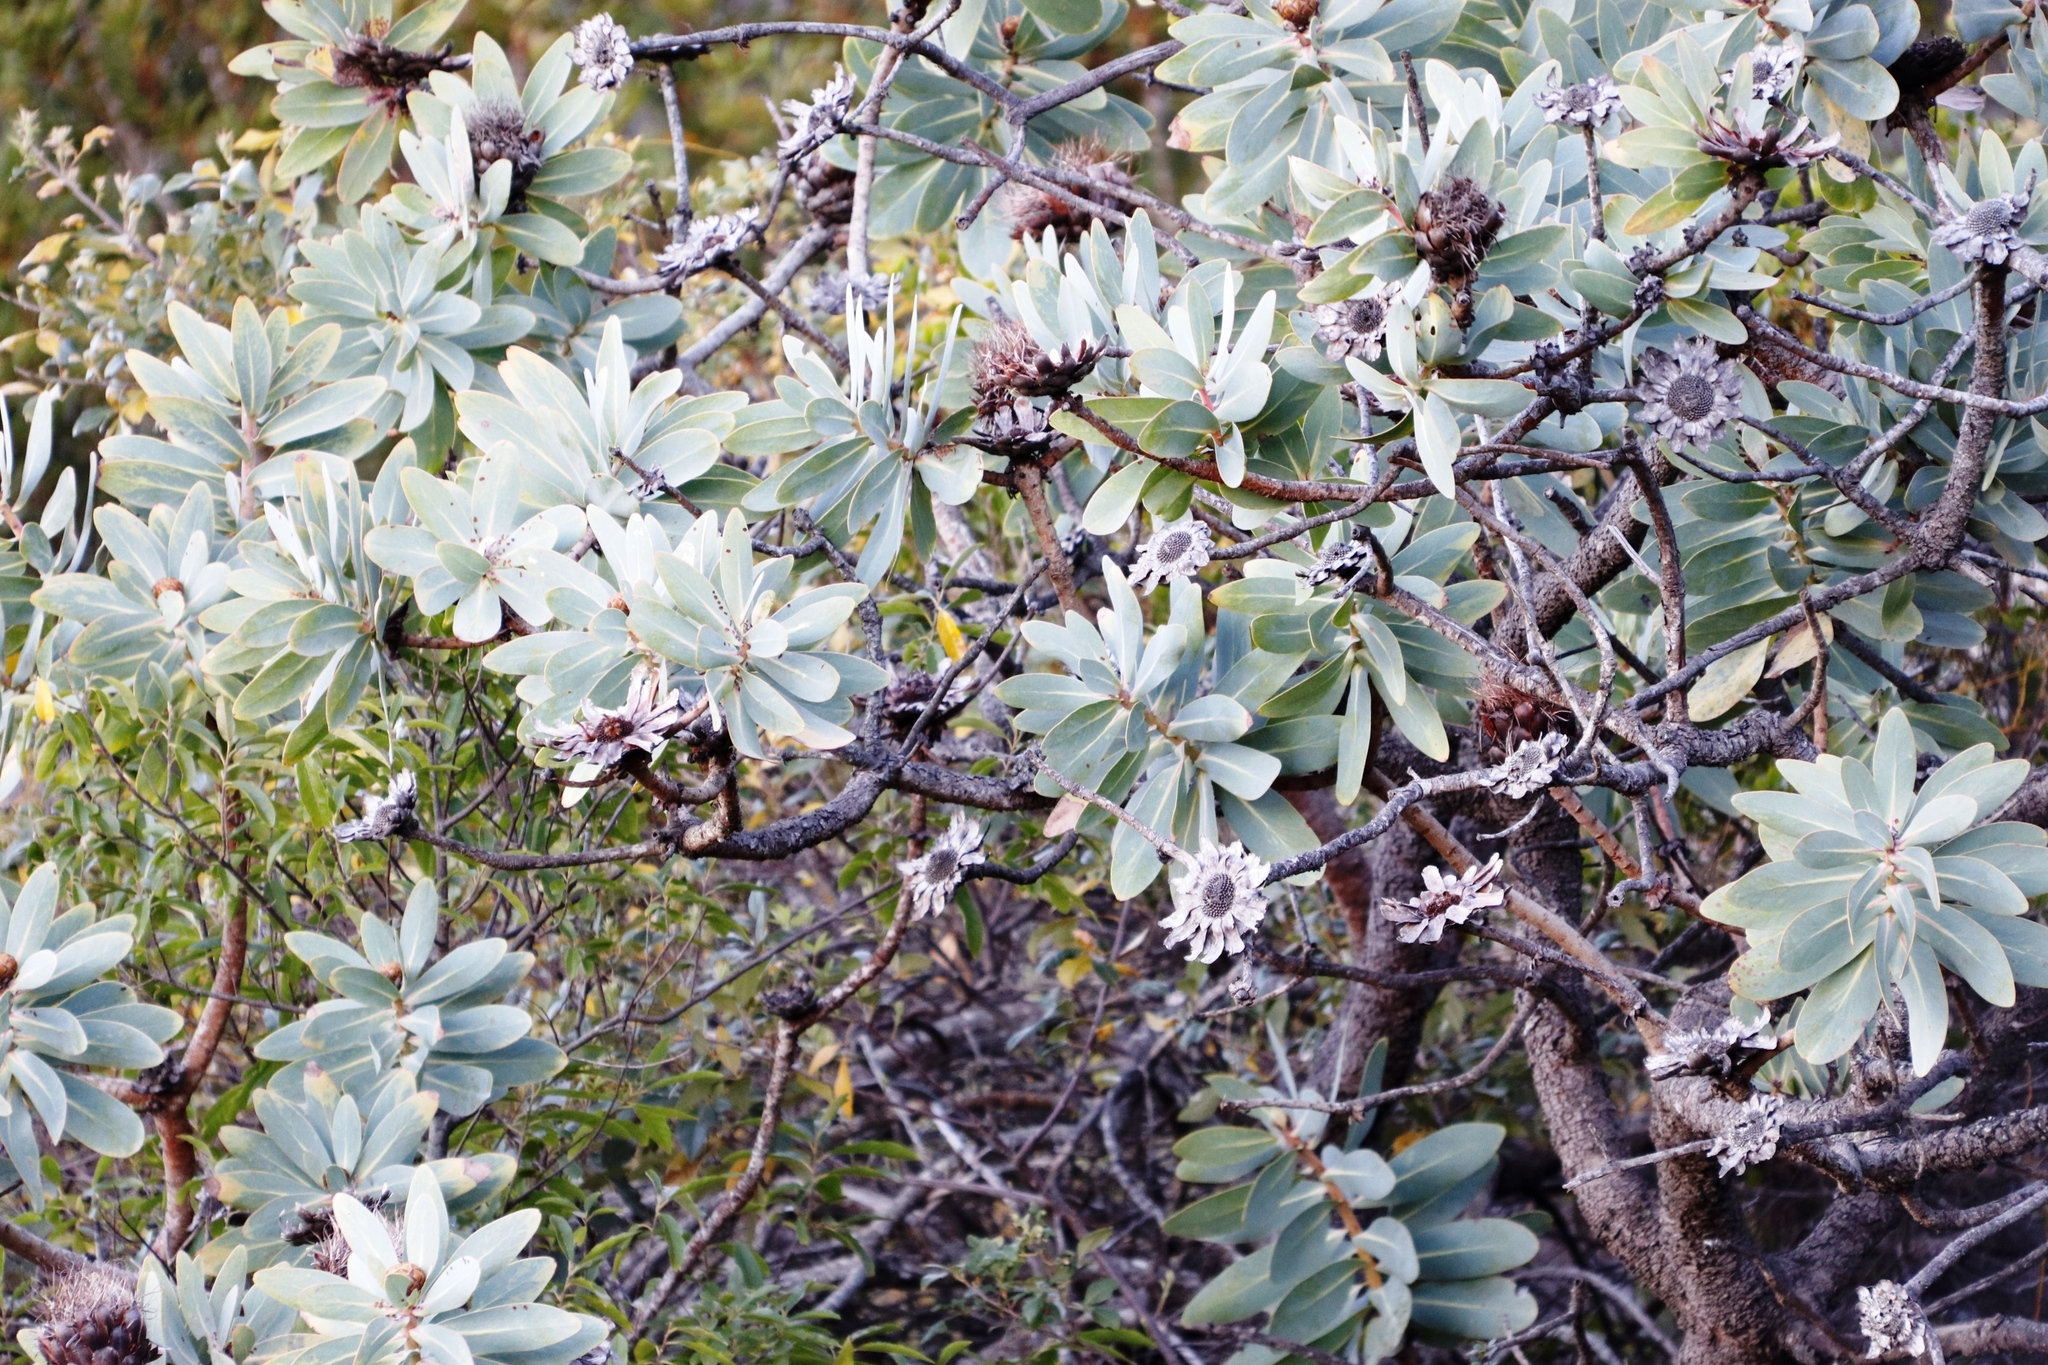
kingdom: Plantae
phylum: Tracheophyta
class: Magnoliopsida
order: Proteales
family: Proteaceae
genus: Protea
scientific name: Protea nitida
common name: Tree protea
